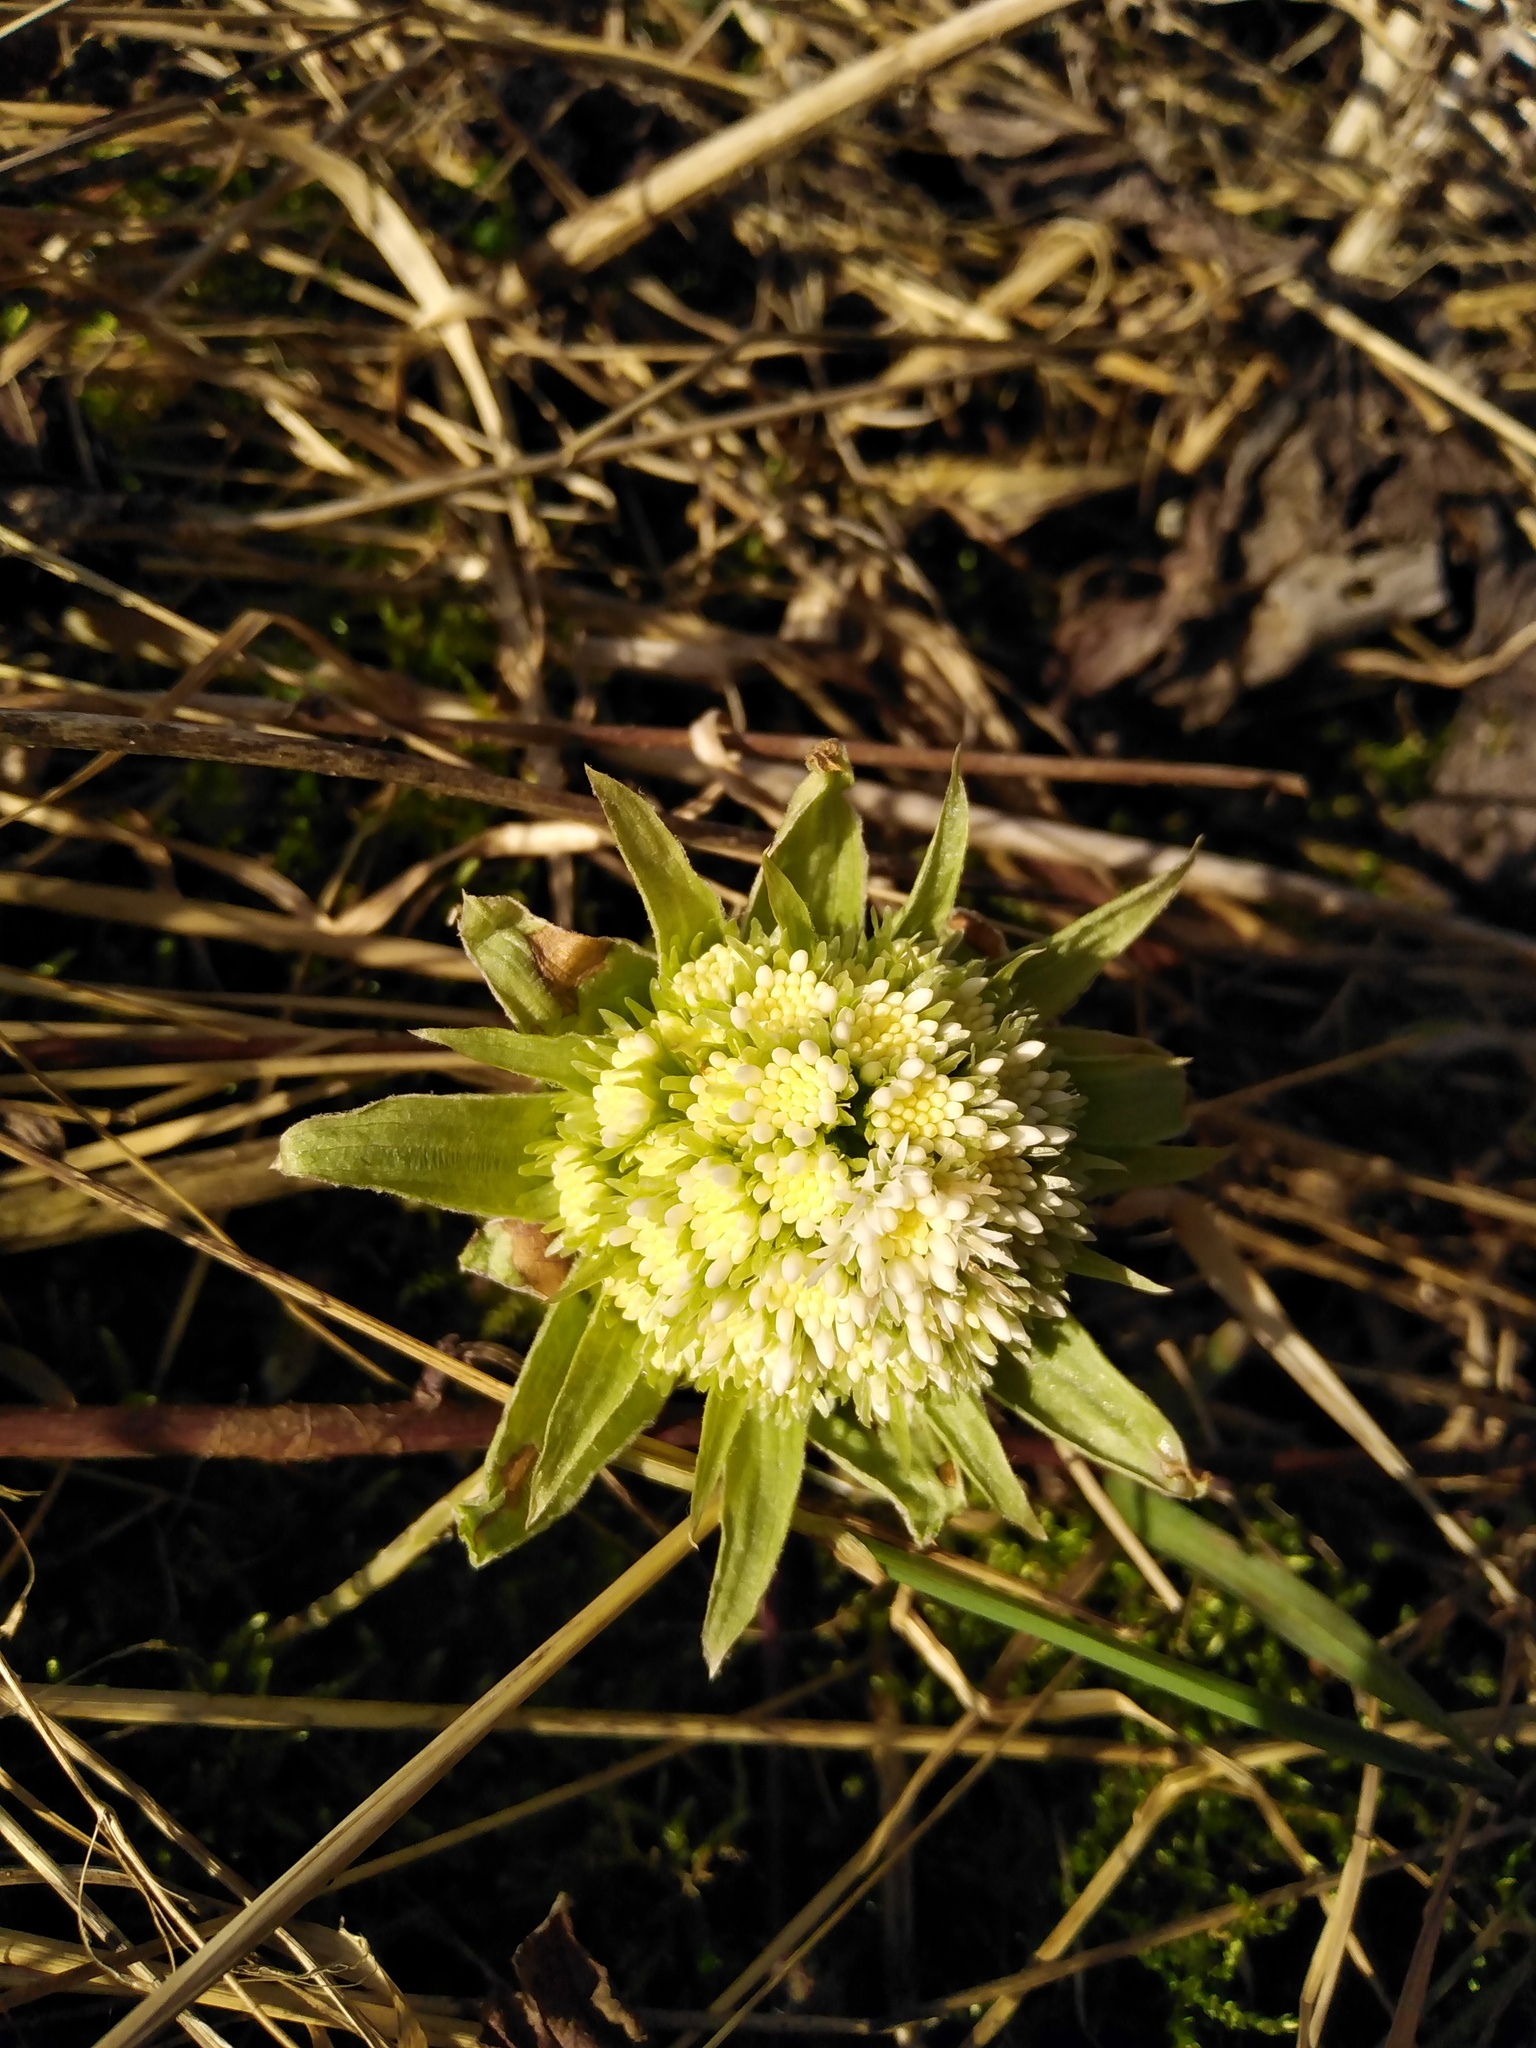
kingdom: Plantae
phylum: Tracheophyta
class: Magnoliopsida
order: Asterales
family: Asteraceae
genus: Petasites
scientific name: Petasites albus
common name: White butterbur
